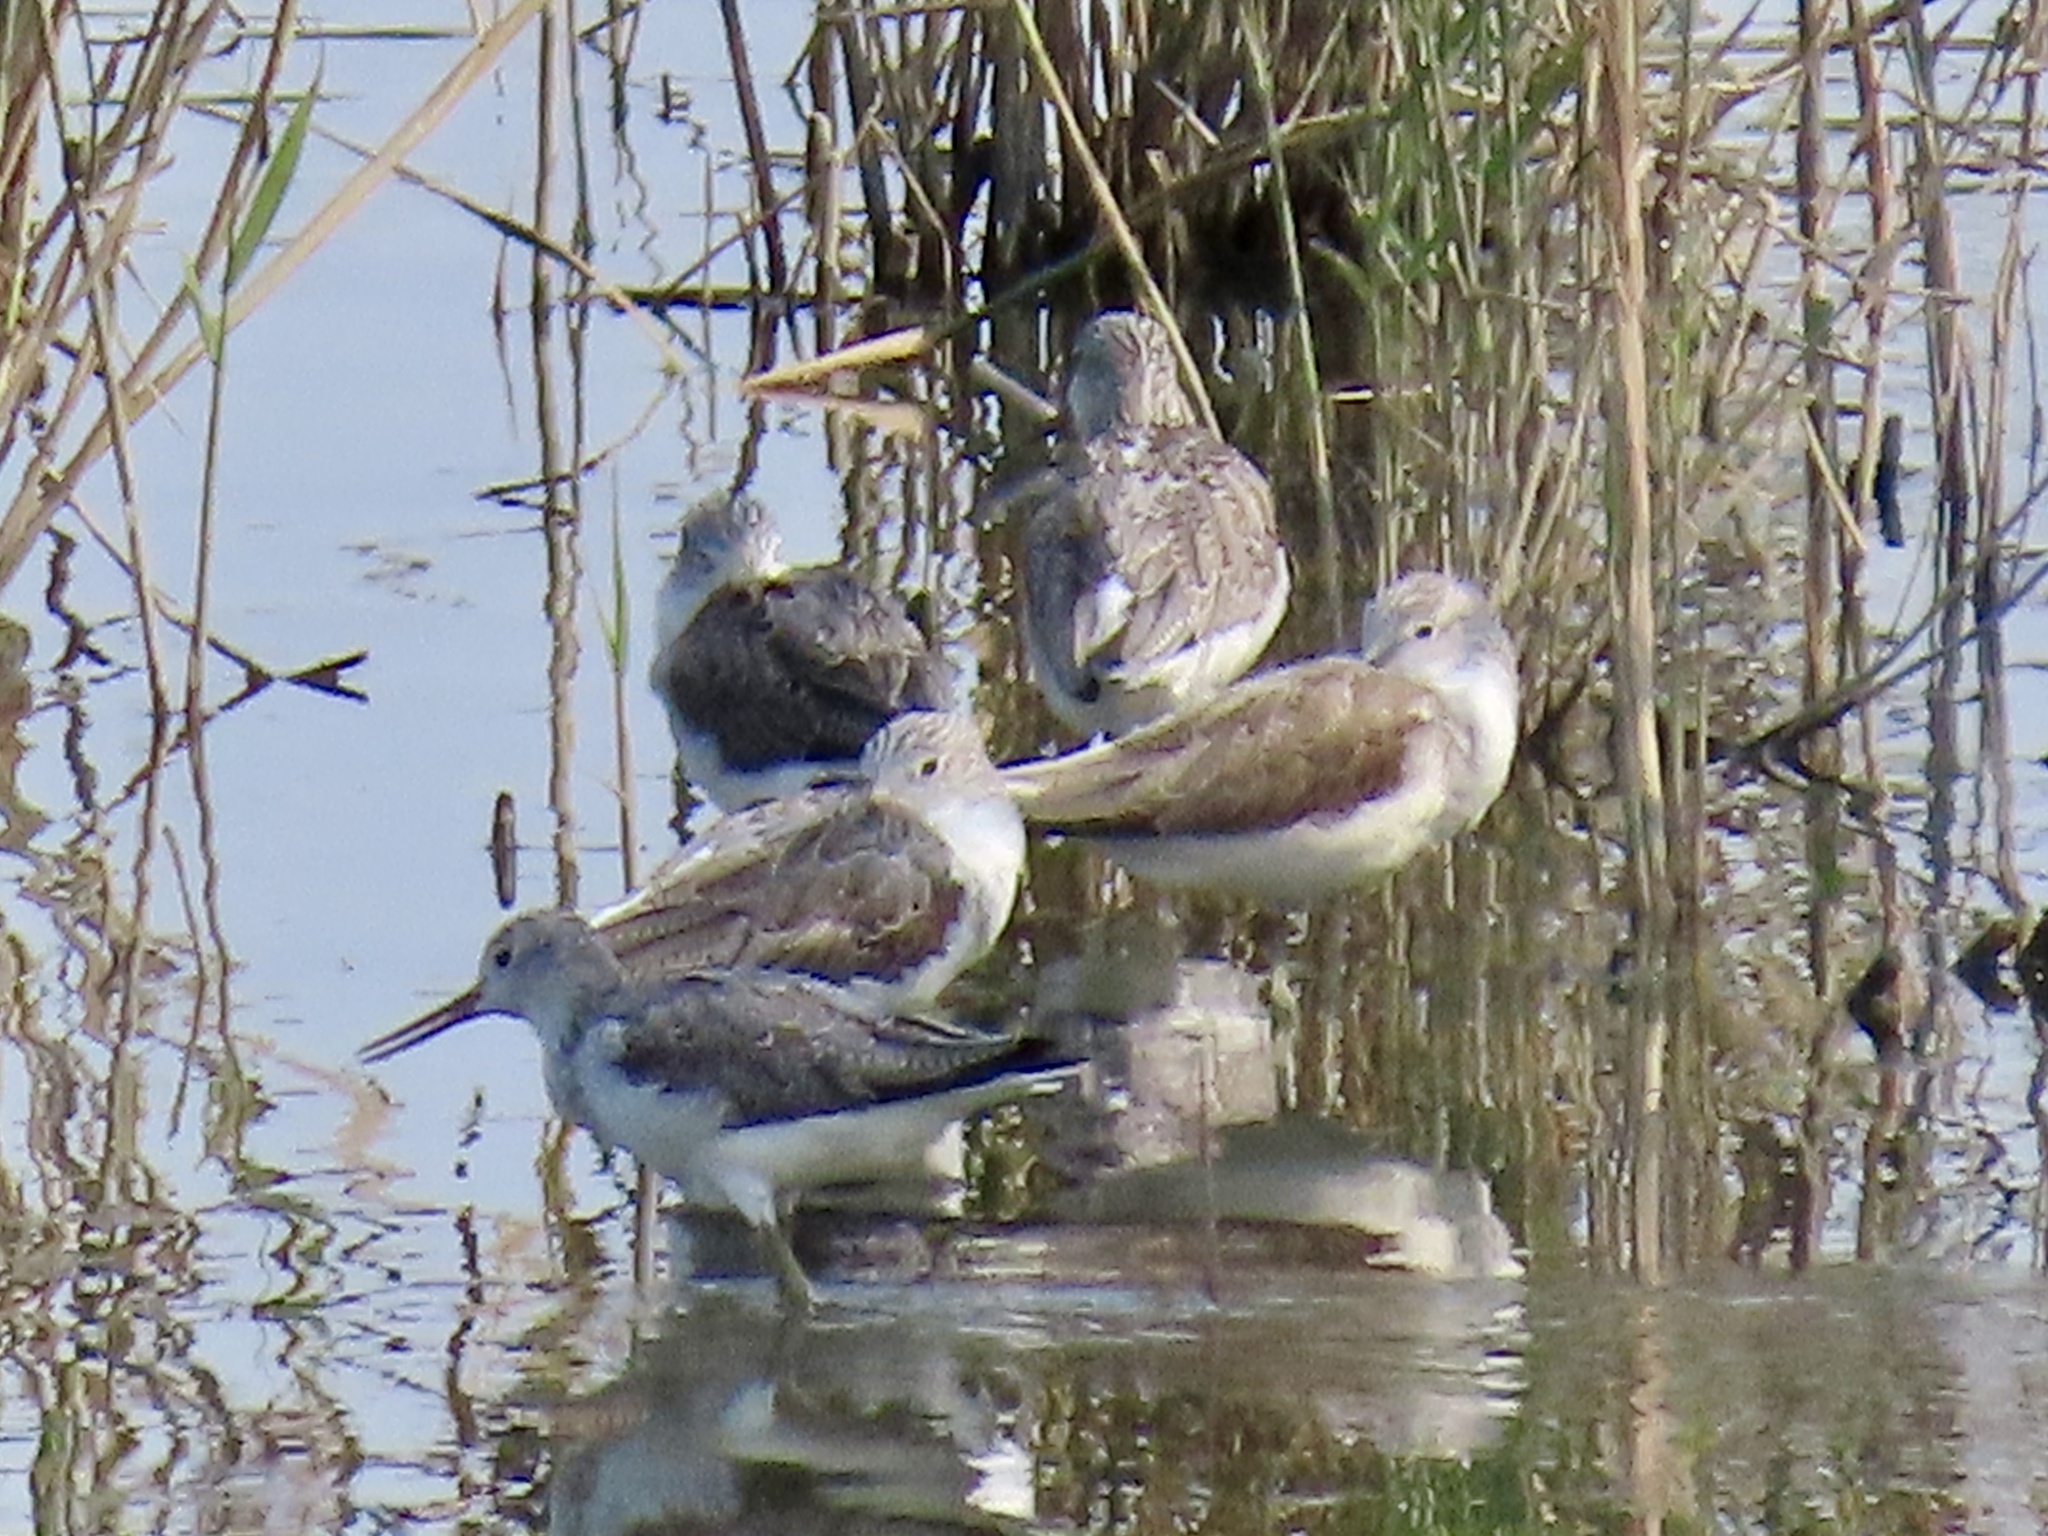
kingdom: Animalia
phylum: Chordata
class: Aves
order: Charadriiformes
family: Scolopacidae
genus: Tringa
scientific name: Tringa nebularia
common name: Common greenshank
